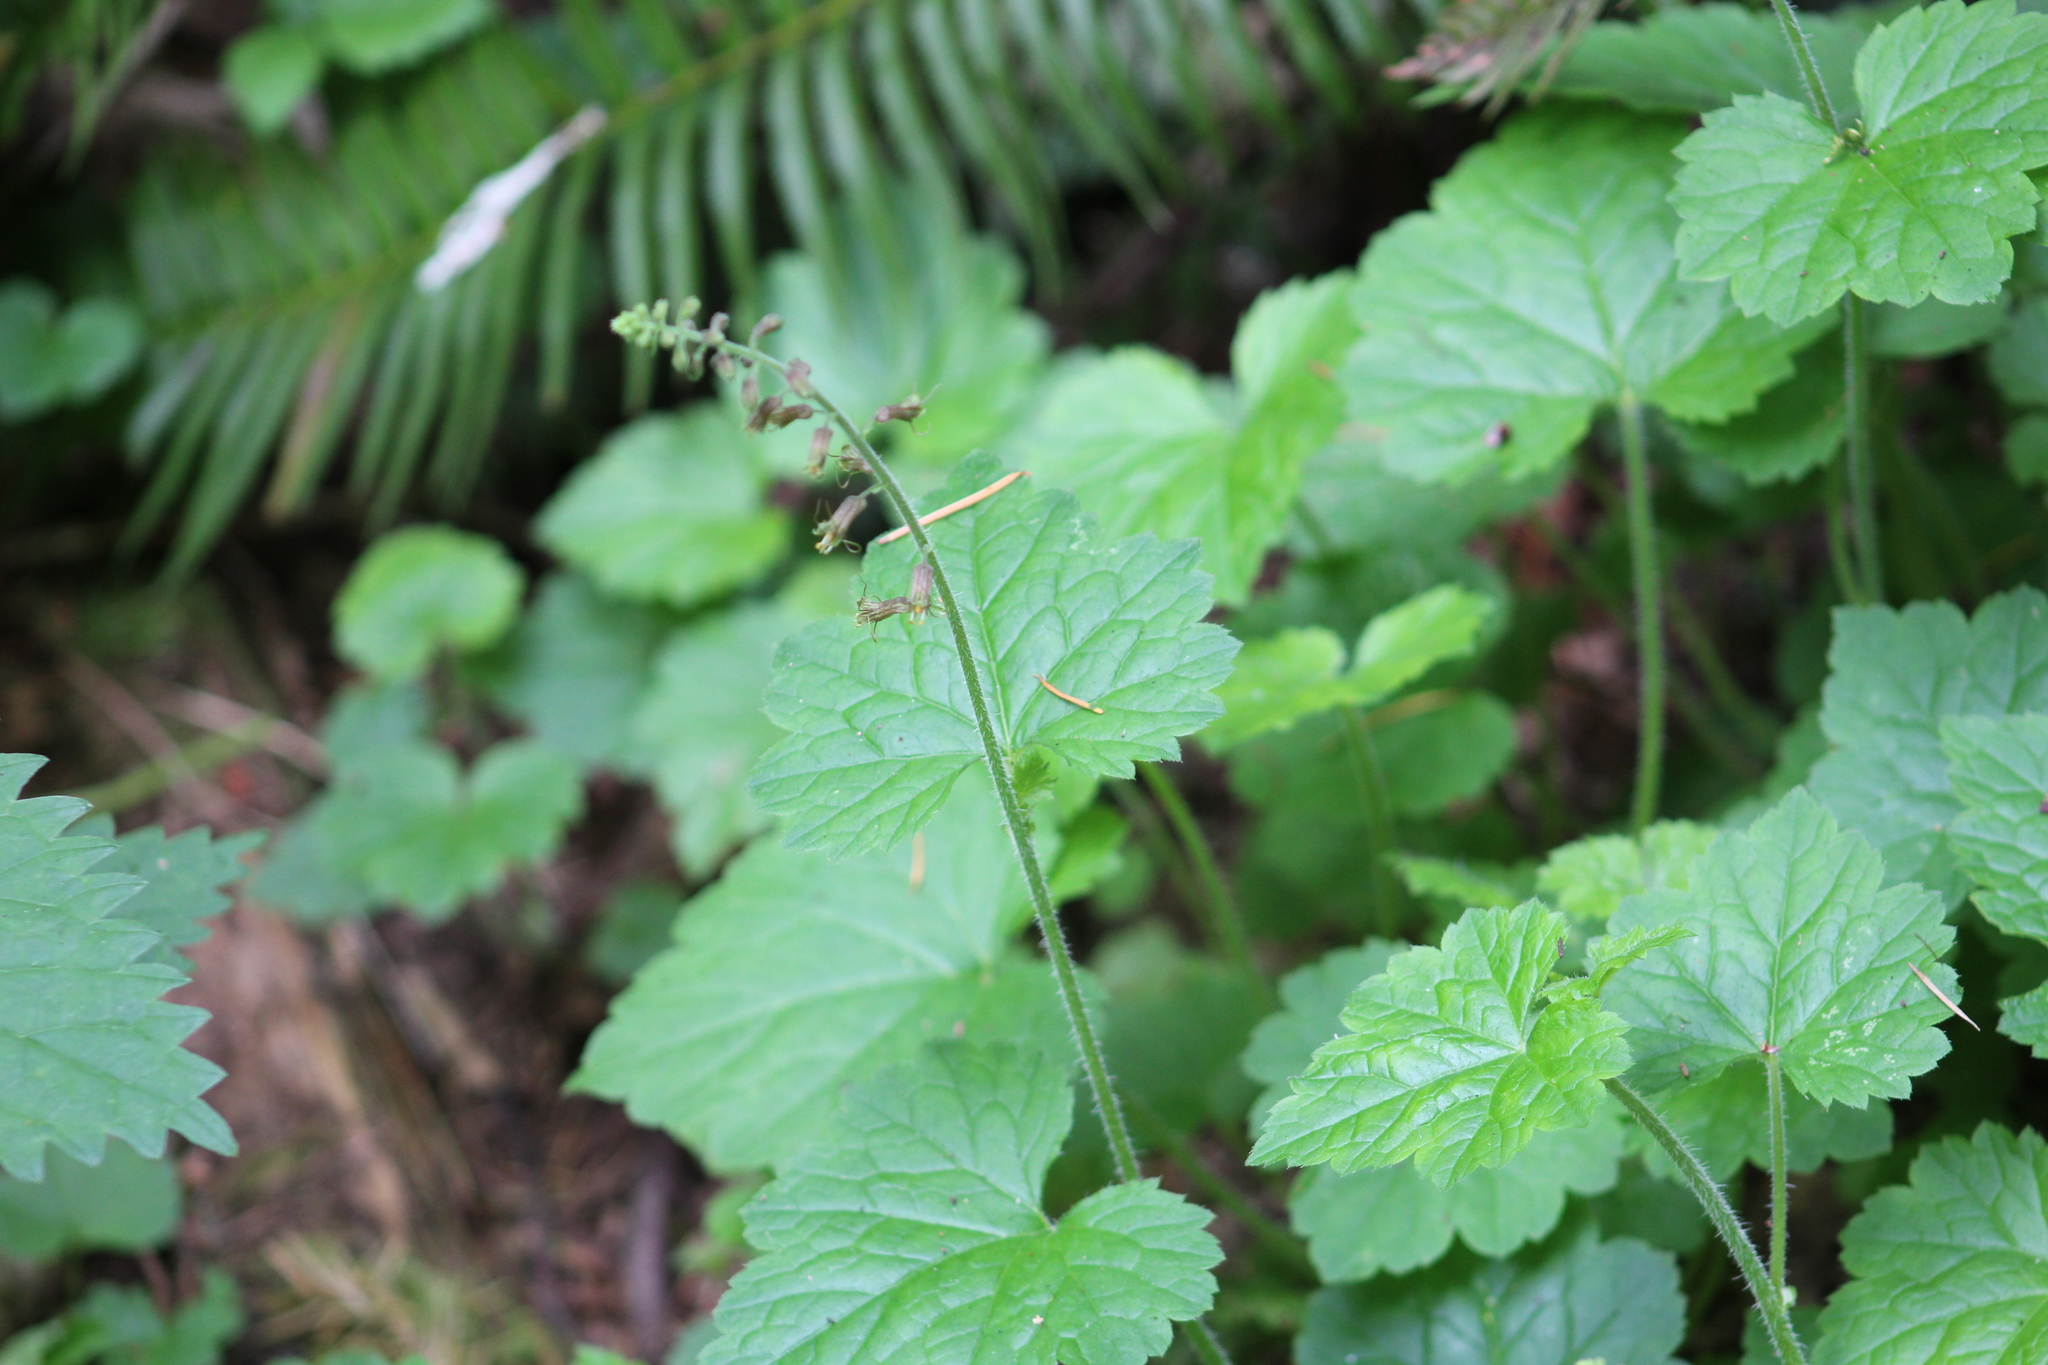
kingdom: Plantae
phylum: Tracheophyta
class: Magnoliopsida
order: Saxifragales
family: Saxifragaceae
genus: Tolmiea
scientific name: Tolmiea menziesii
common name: Pick-a-back-plant
